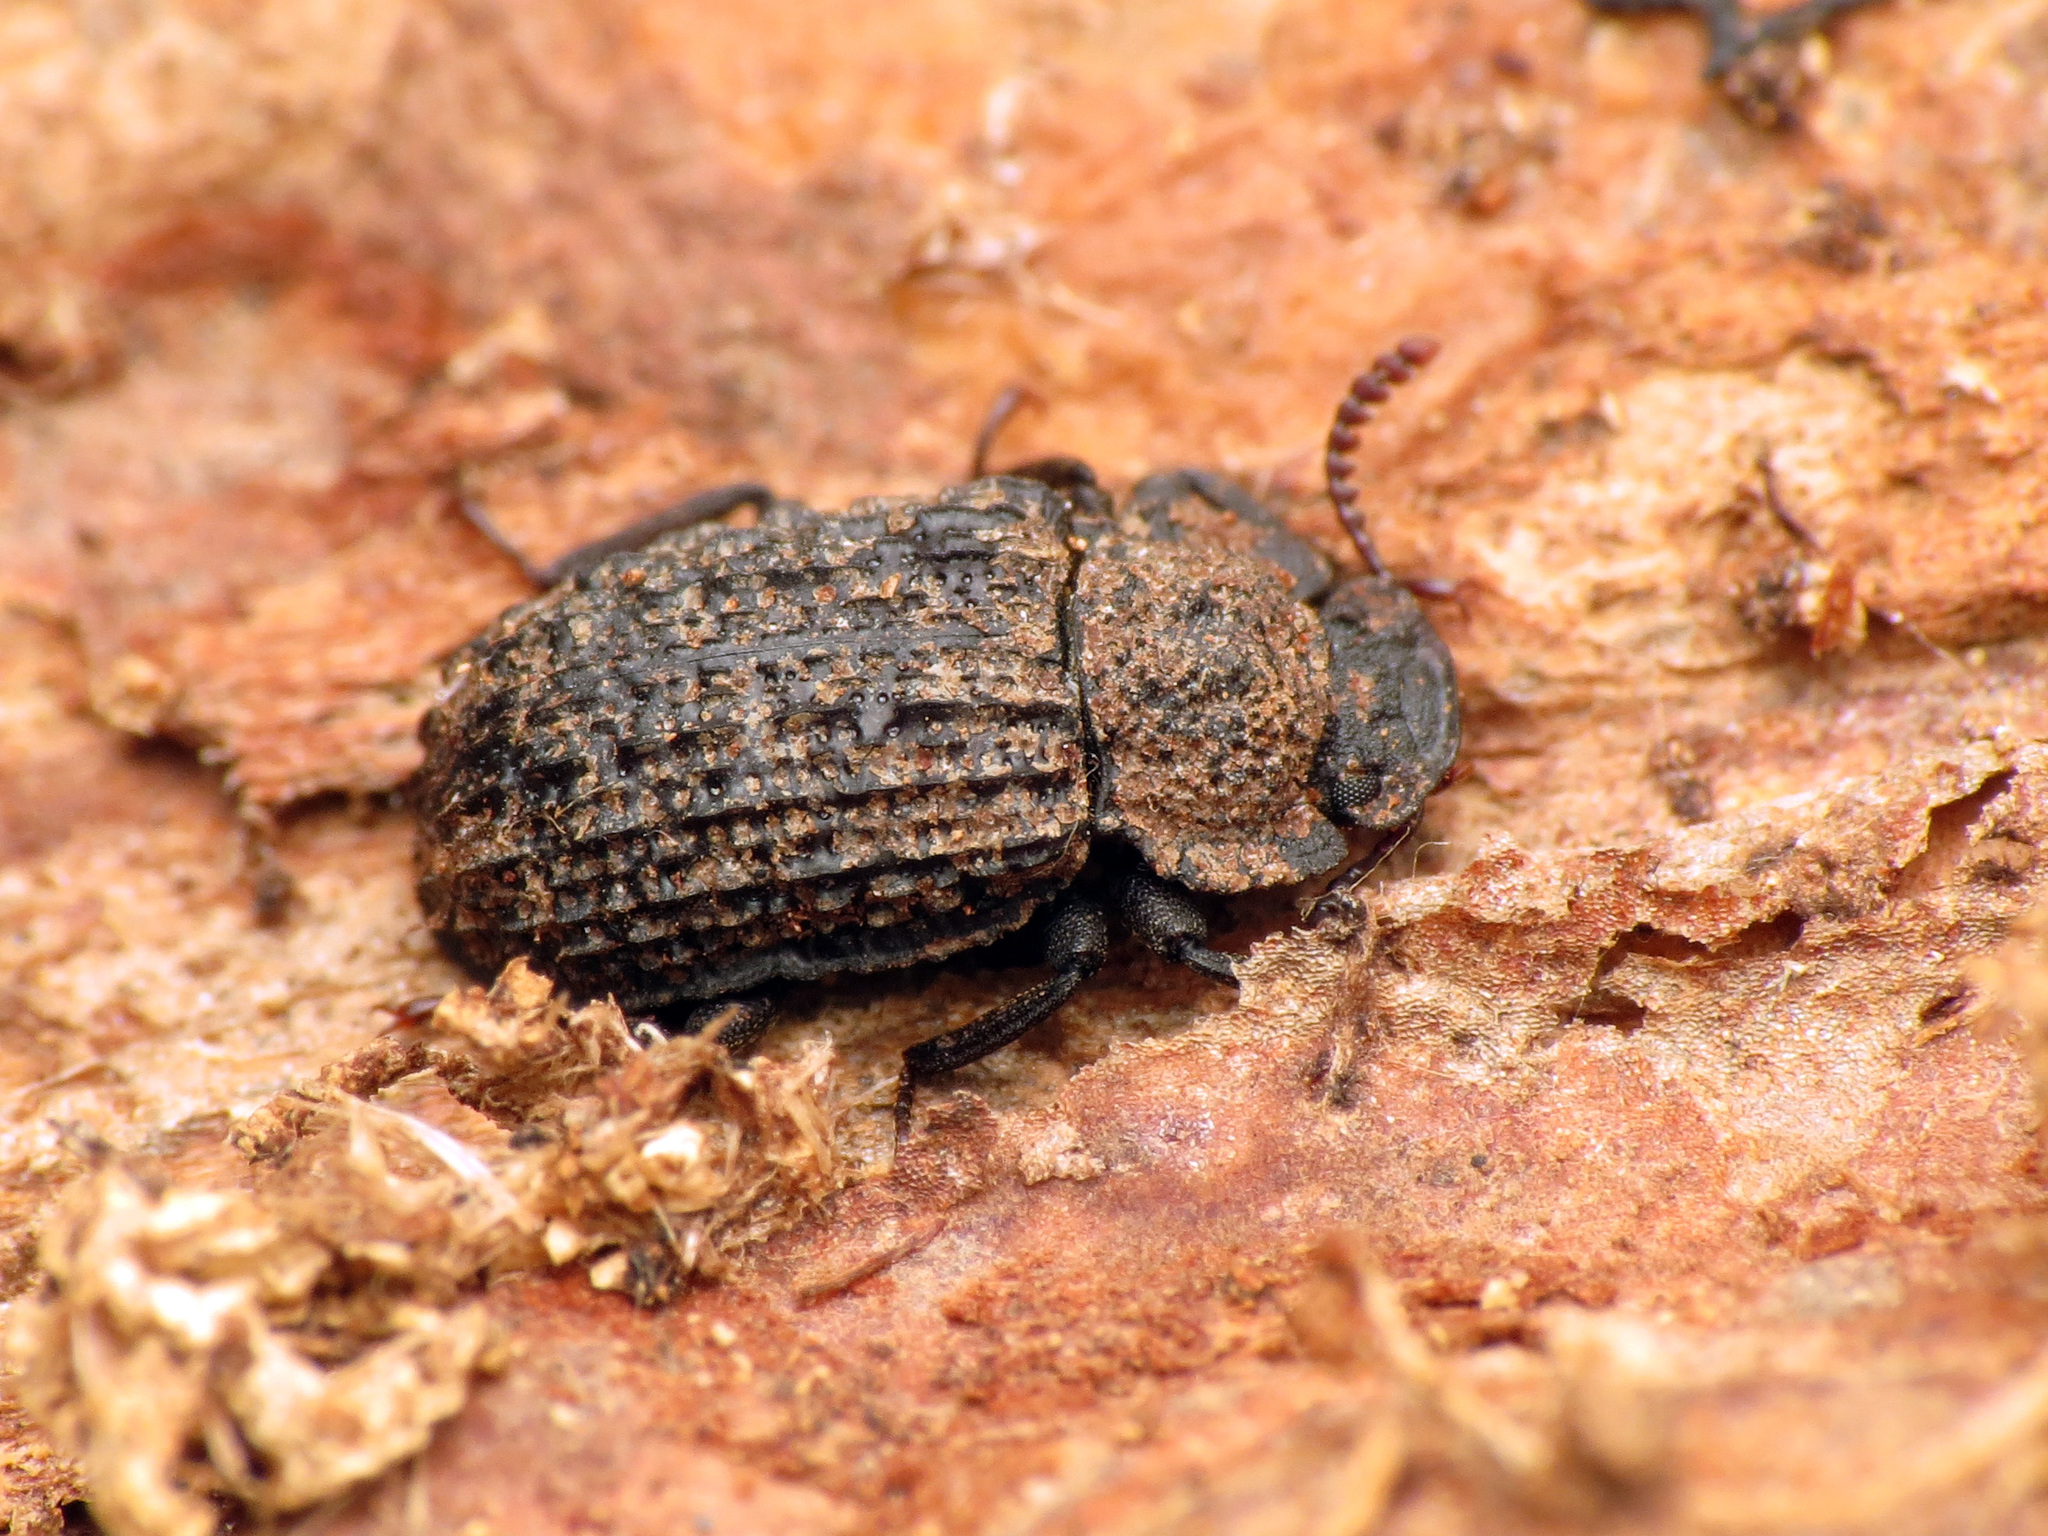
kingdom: Animalia
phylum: Arthropoda
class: Insecta
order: Coleoptera
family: Tenebrionidae
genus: Bolitophagus
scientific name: Bolitophagus corticola
